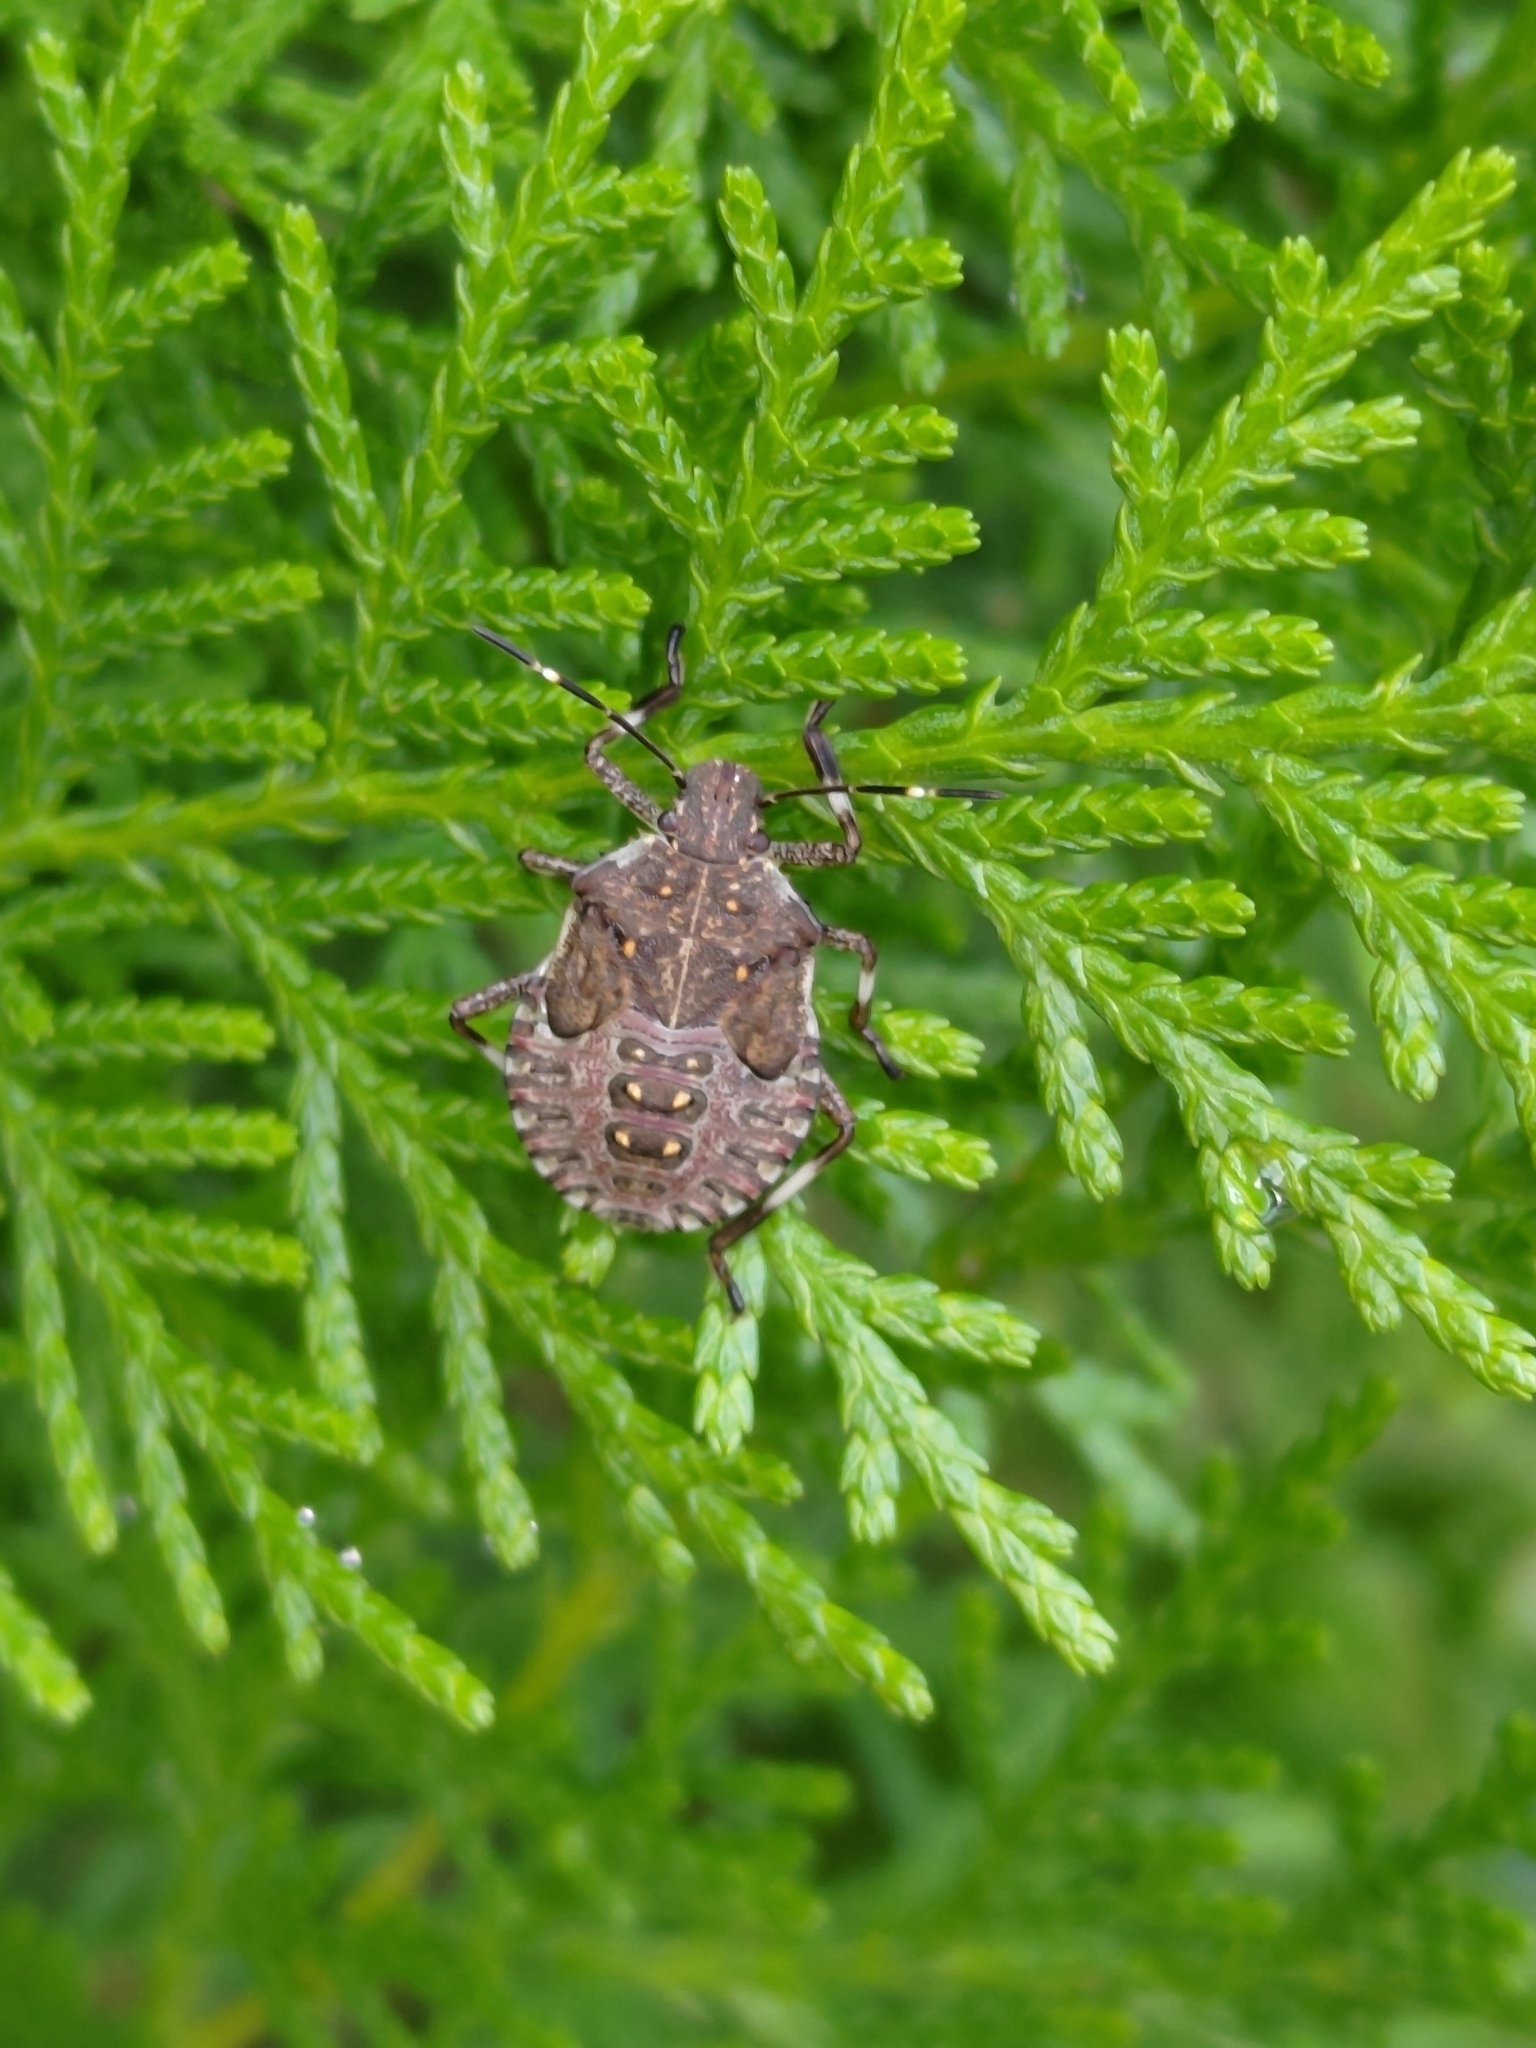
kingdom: Animalia
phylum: Arthropoda
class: Insecta
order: Hemiptera
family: Pentatomidae
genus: Halyomorpha
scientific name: Halyomorpha halys
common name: Brown marmorated stink bug
